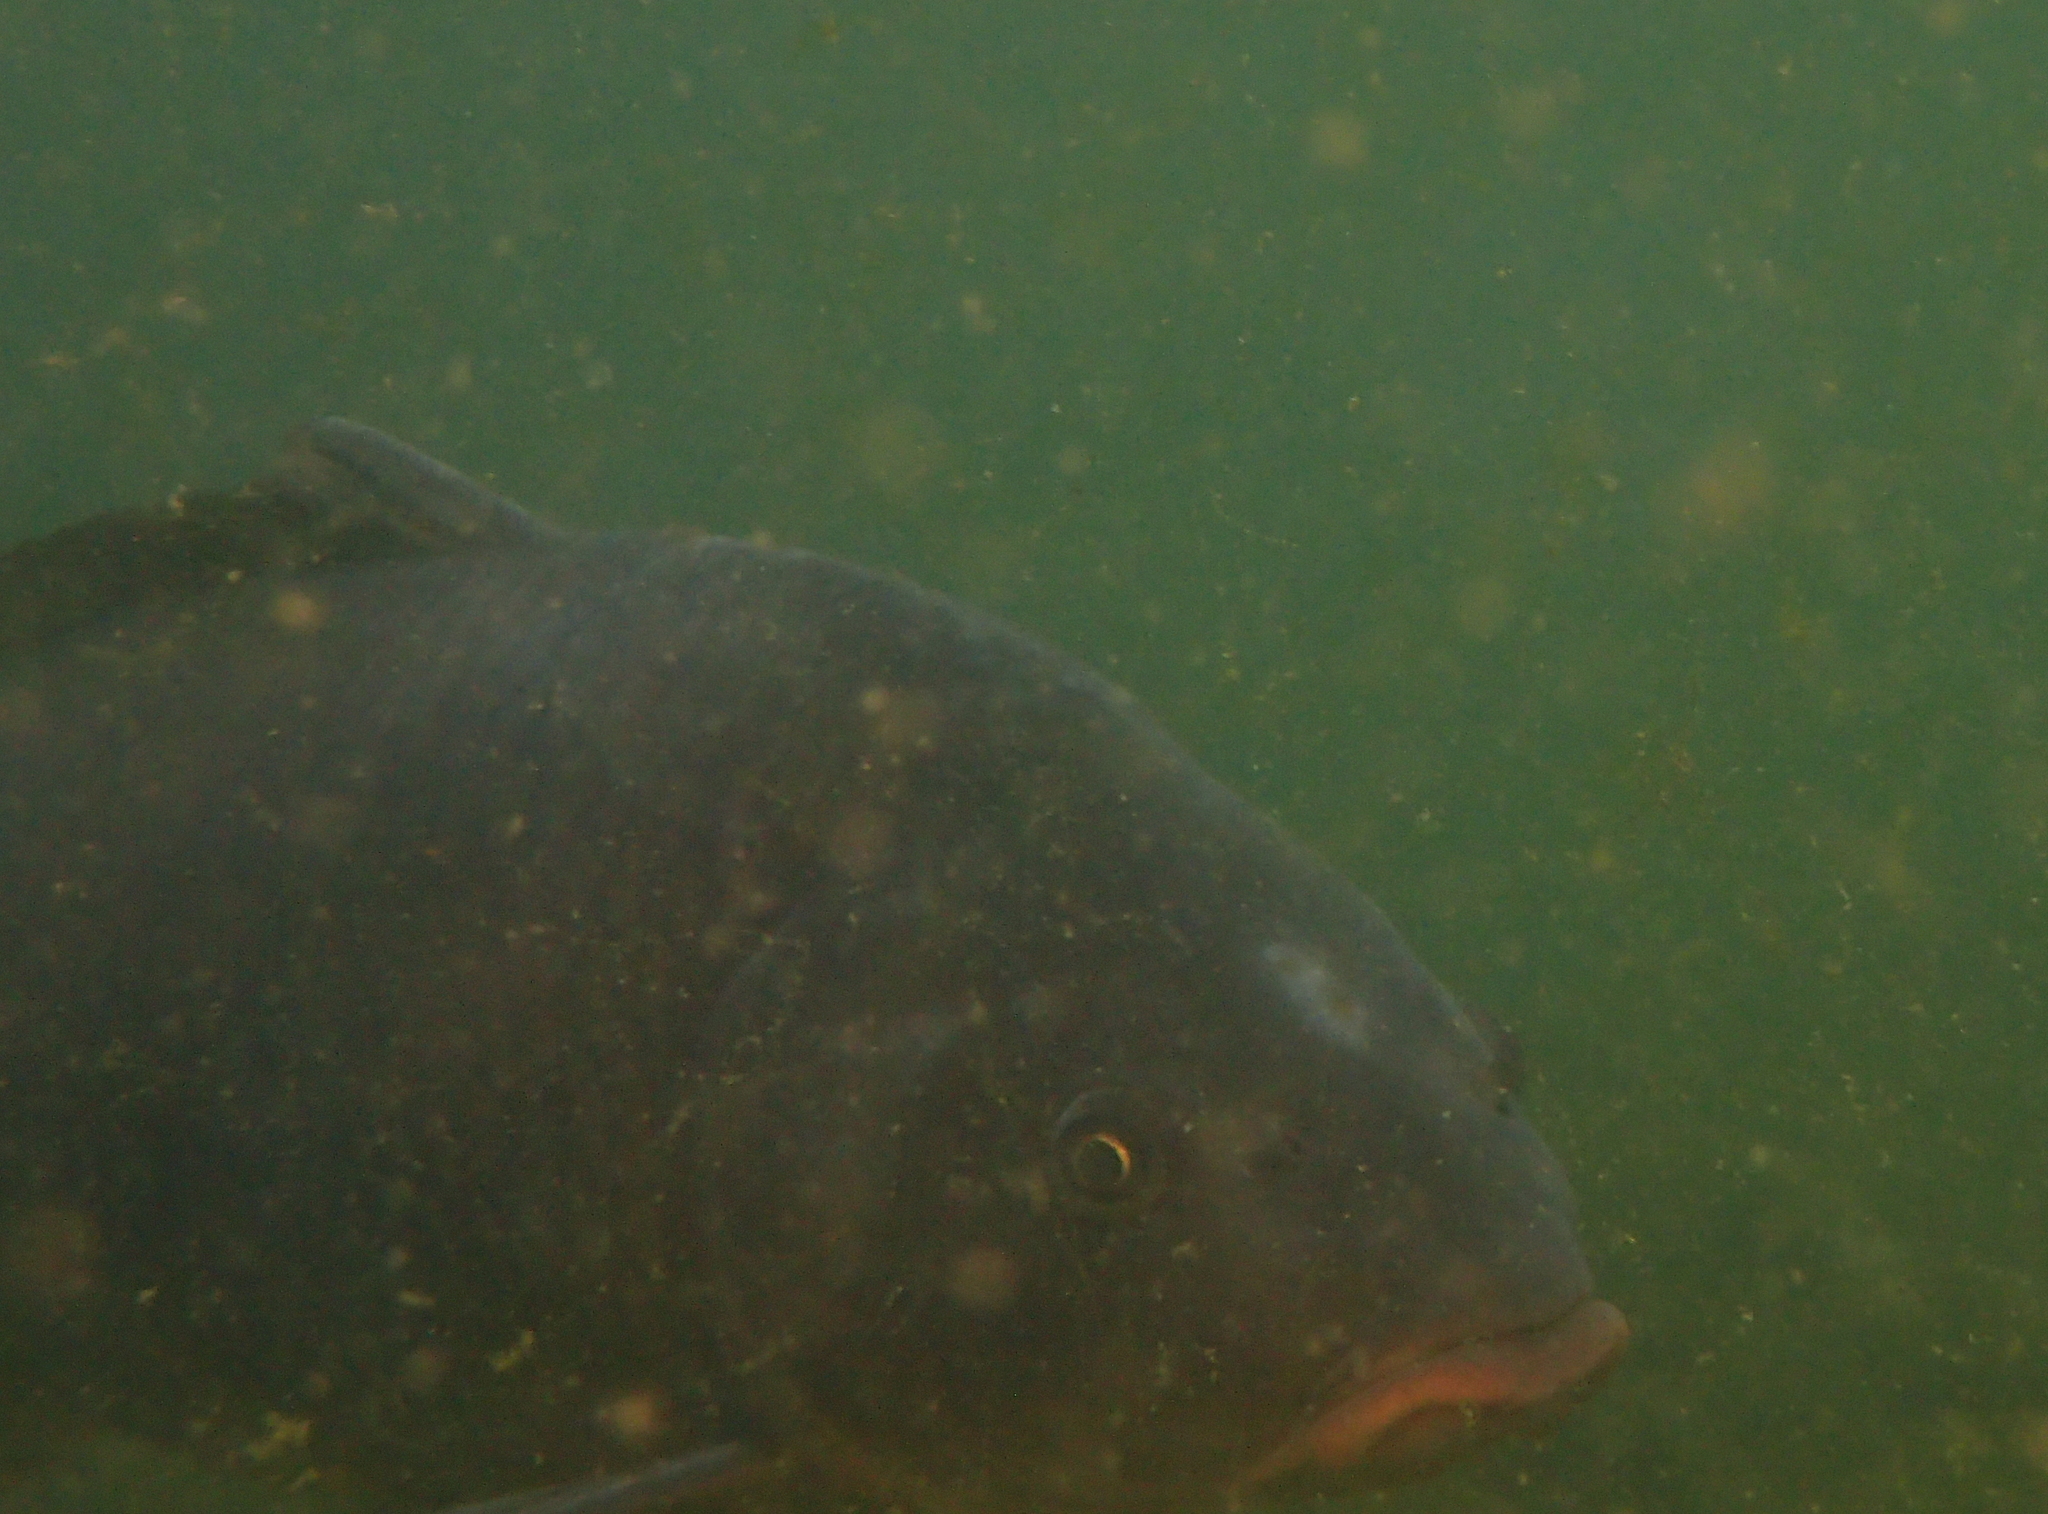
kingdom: Animalia
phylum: Chordata
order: Cypriniformes
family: Cyprinidae
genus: Cyprinus
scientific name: Cyprinus carpio
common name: Common carp
